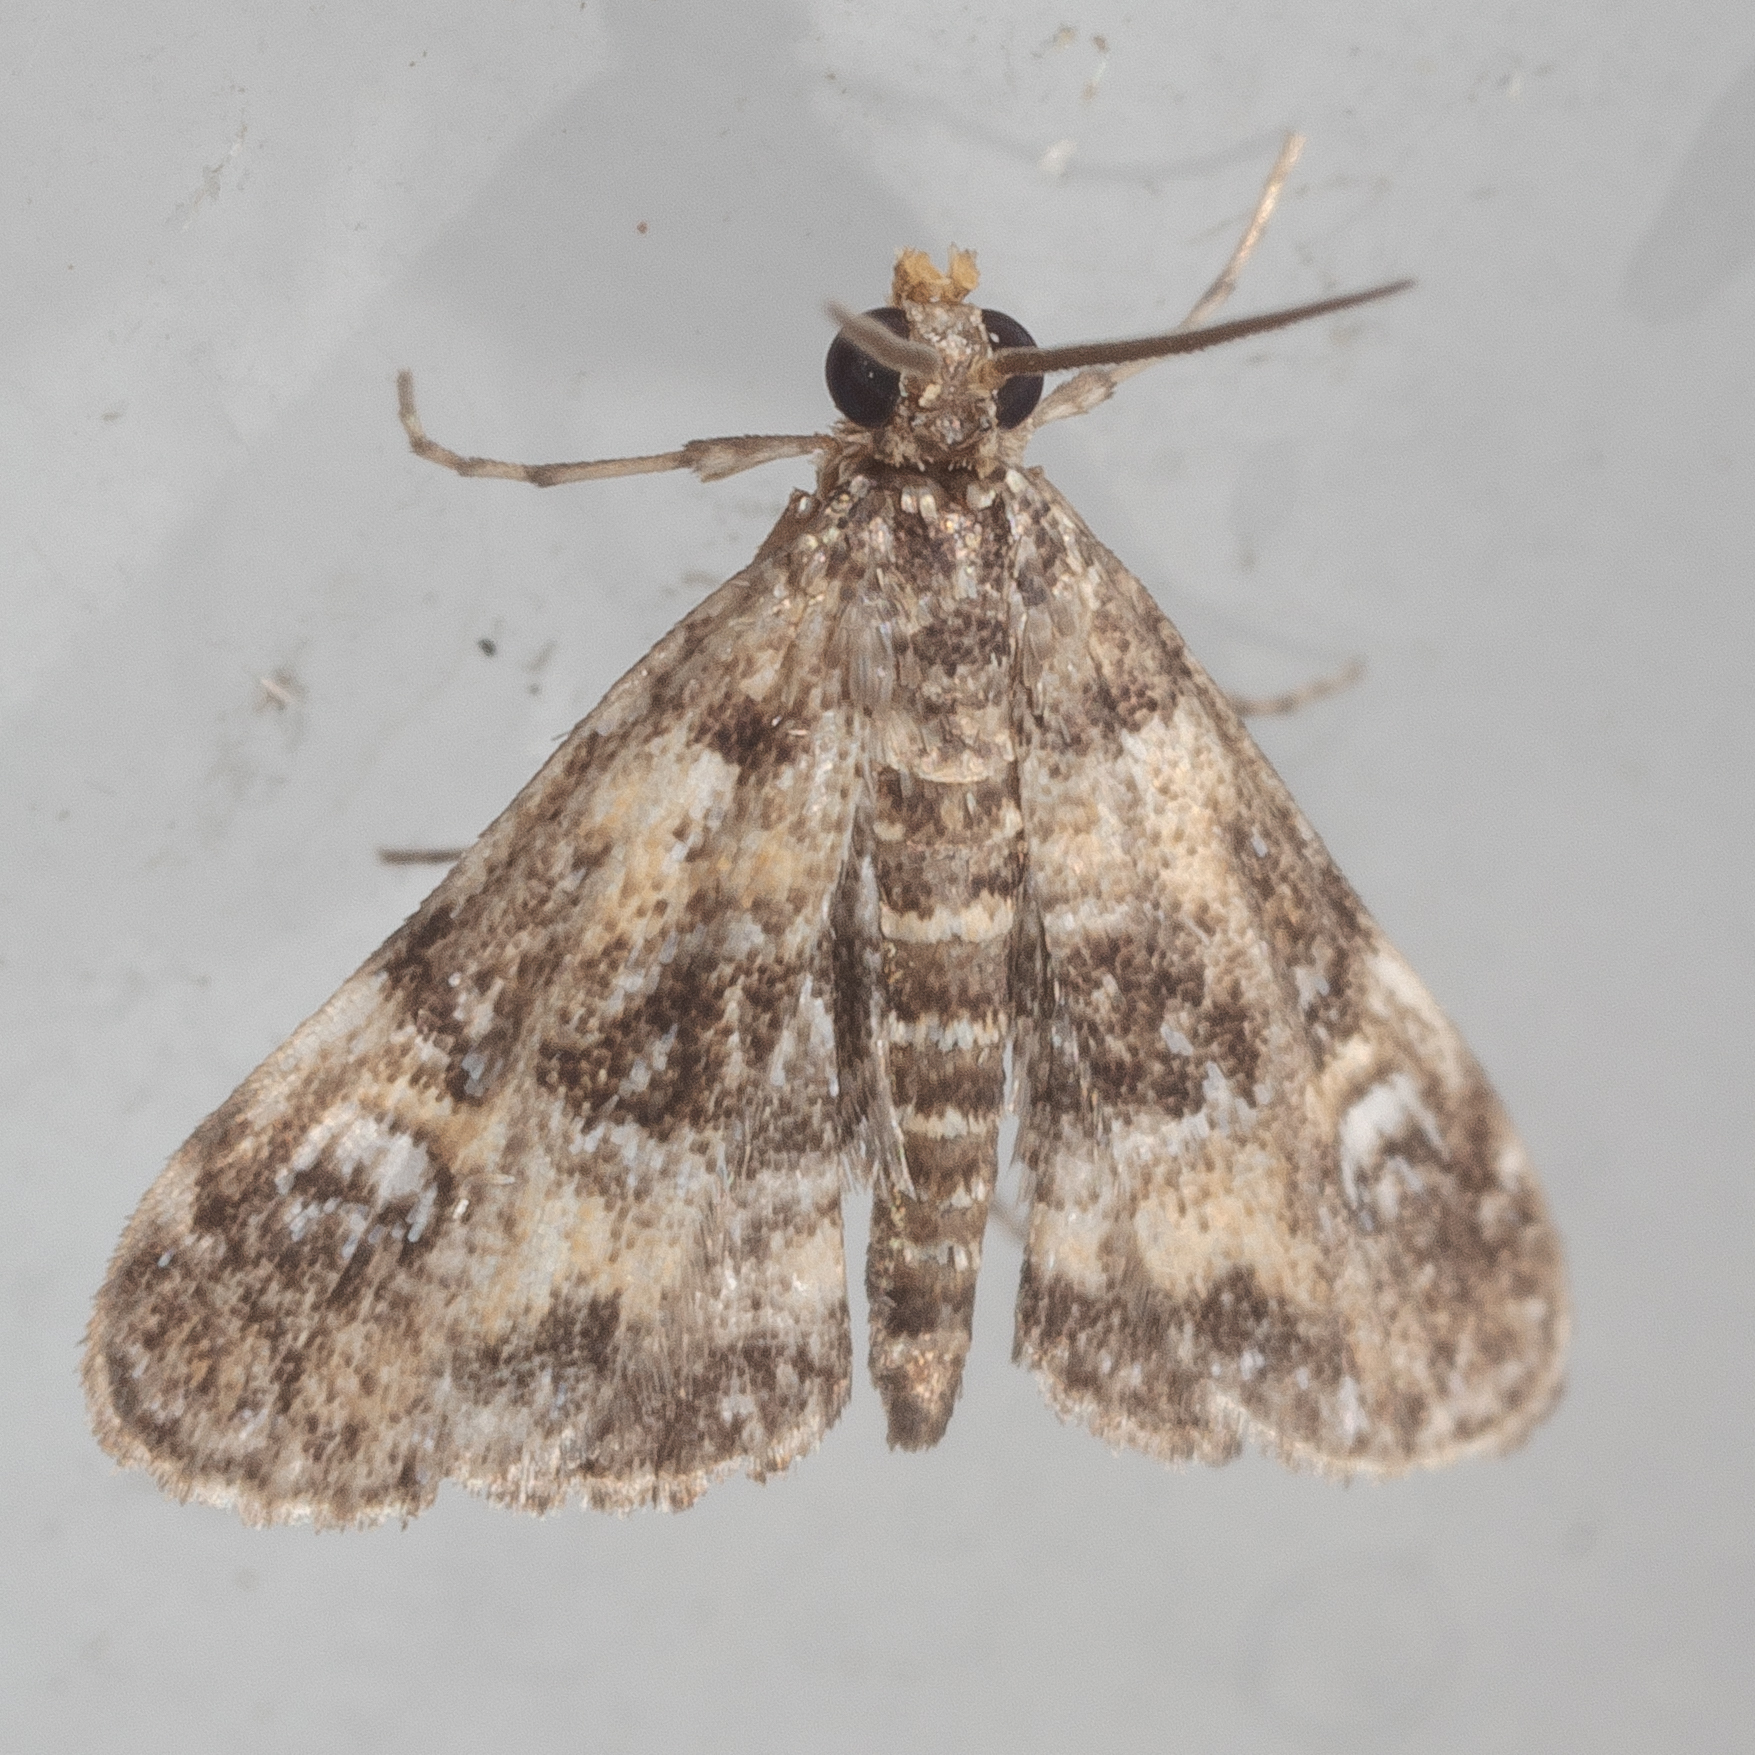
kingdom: Animalia
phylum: Arthropoda
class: Insecta
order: Lepidoptera
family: Crambidae
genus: Elophila
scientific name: Elophila obliteralis
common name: Waterlily leafcutter moth
